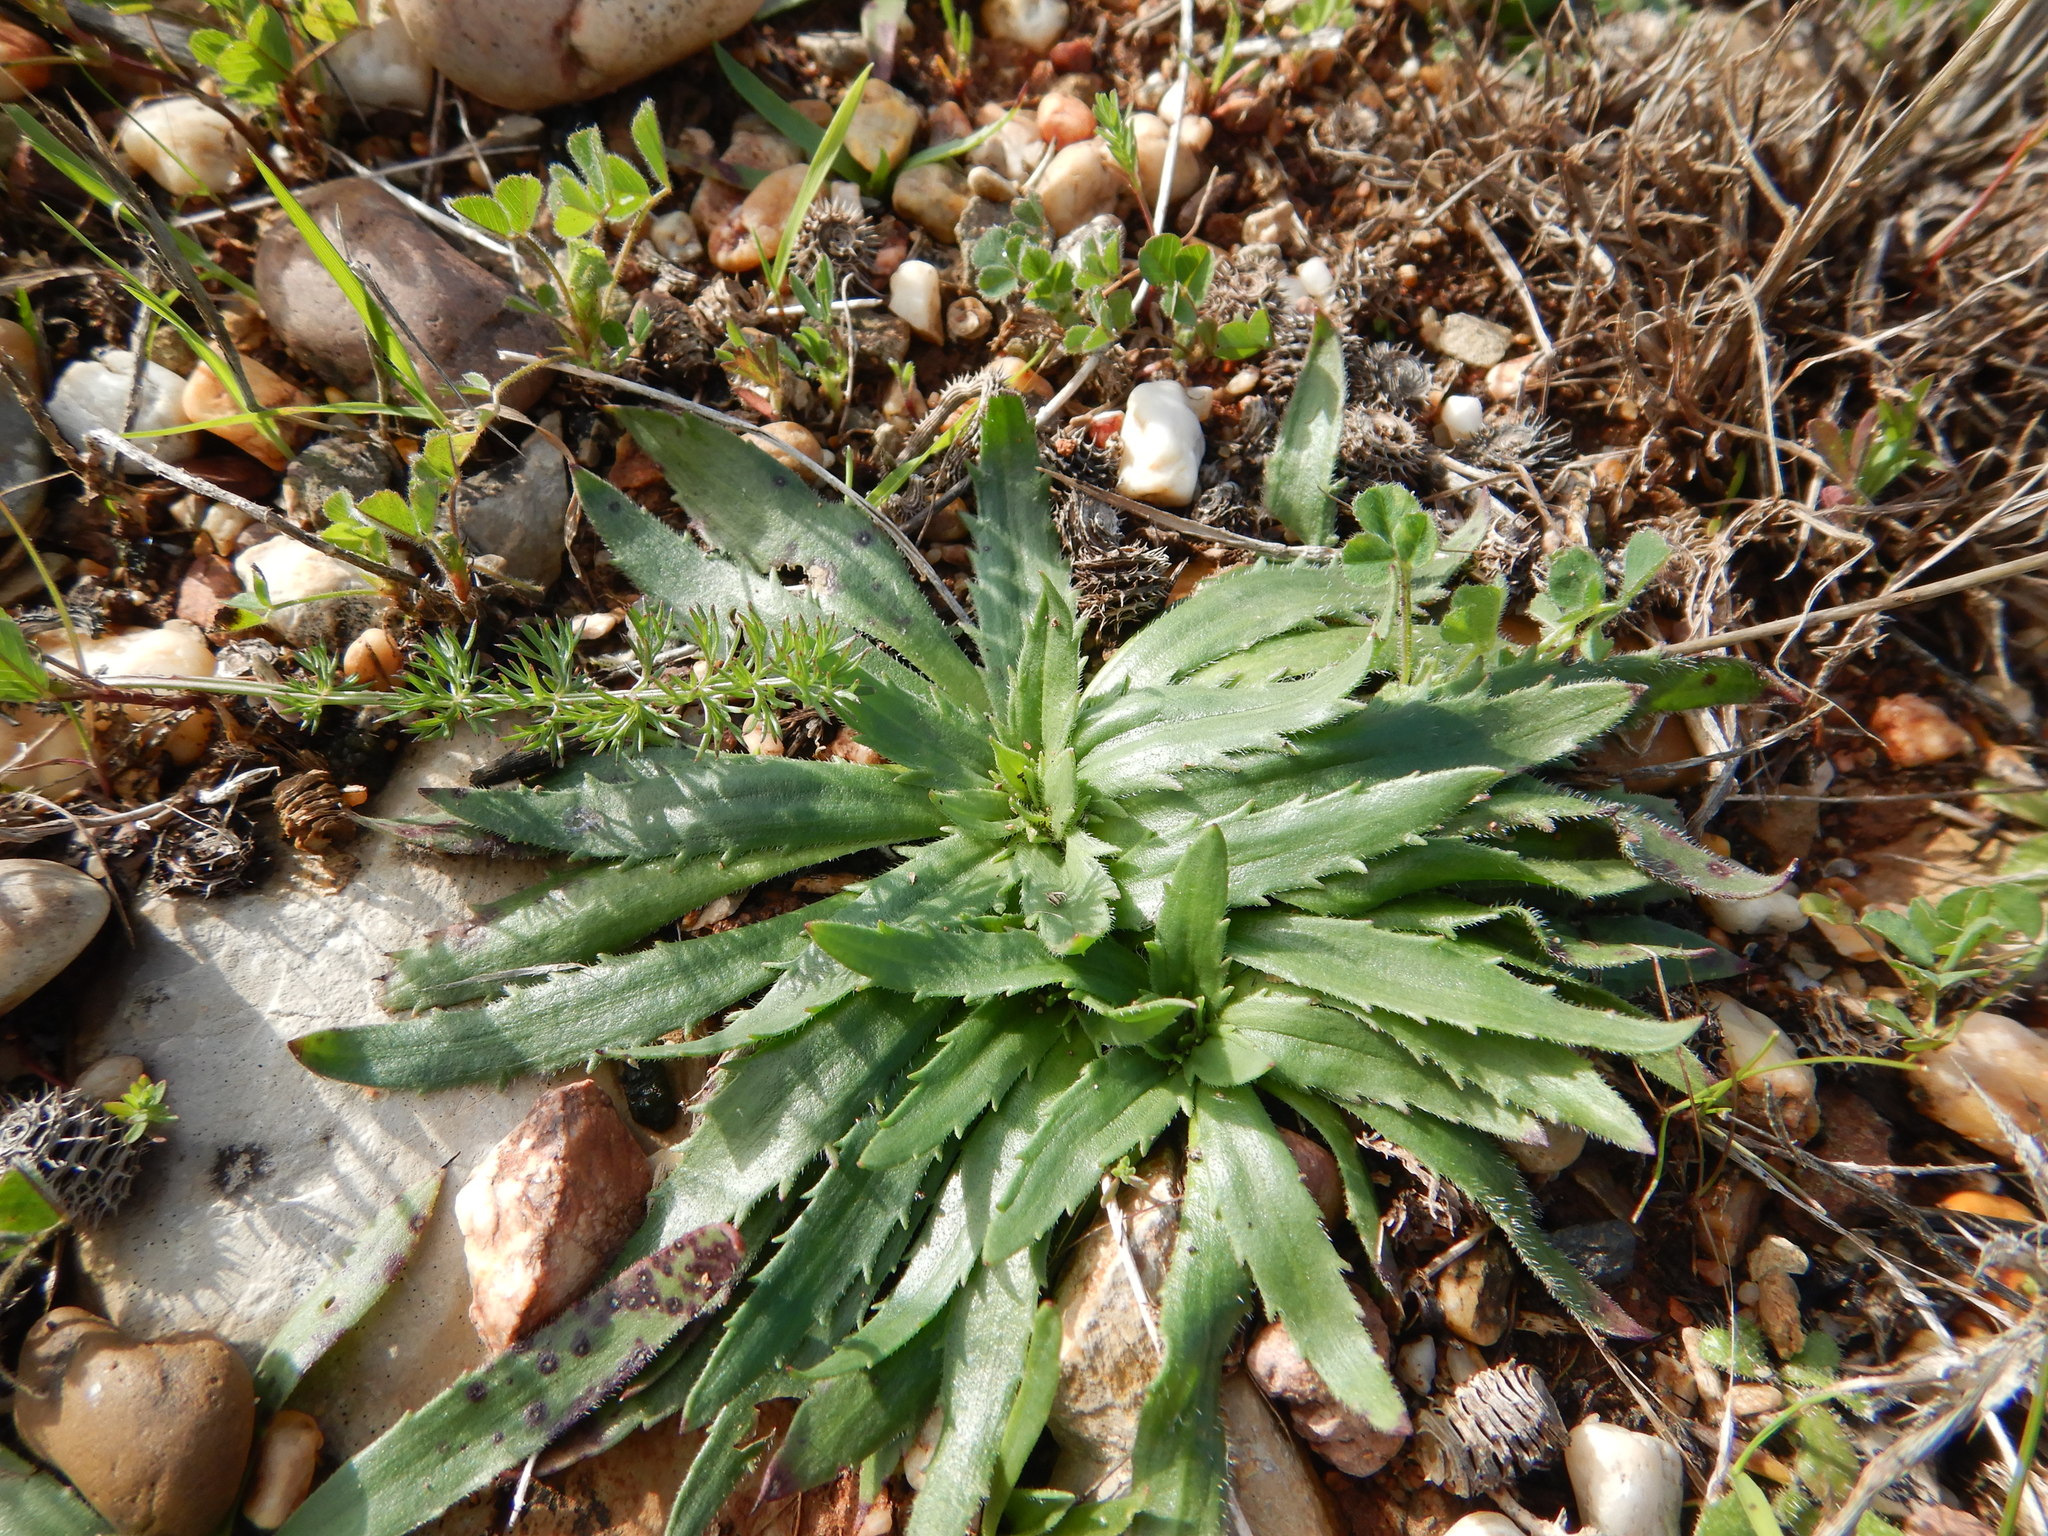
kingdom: Plantae
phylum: Tracheophyta
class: Magnoliopsida
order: Lamiales
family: Plantaginaceae
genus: Plantago
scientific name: Plantago serraria
